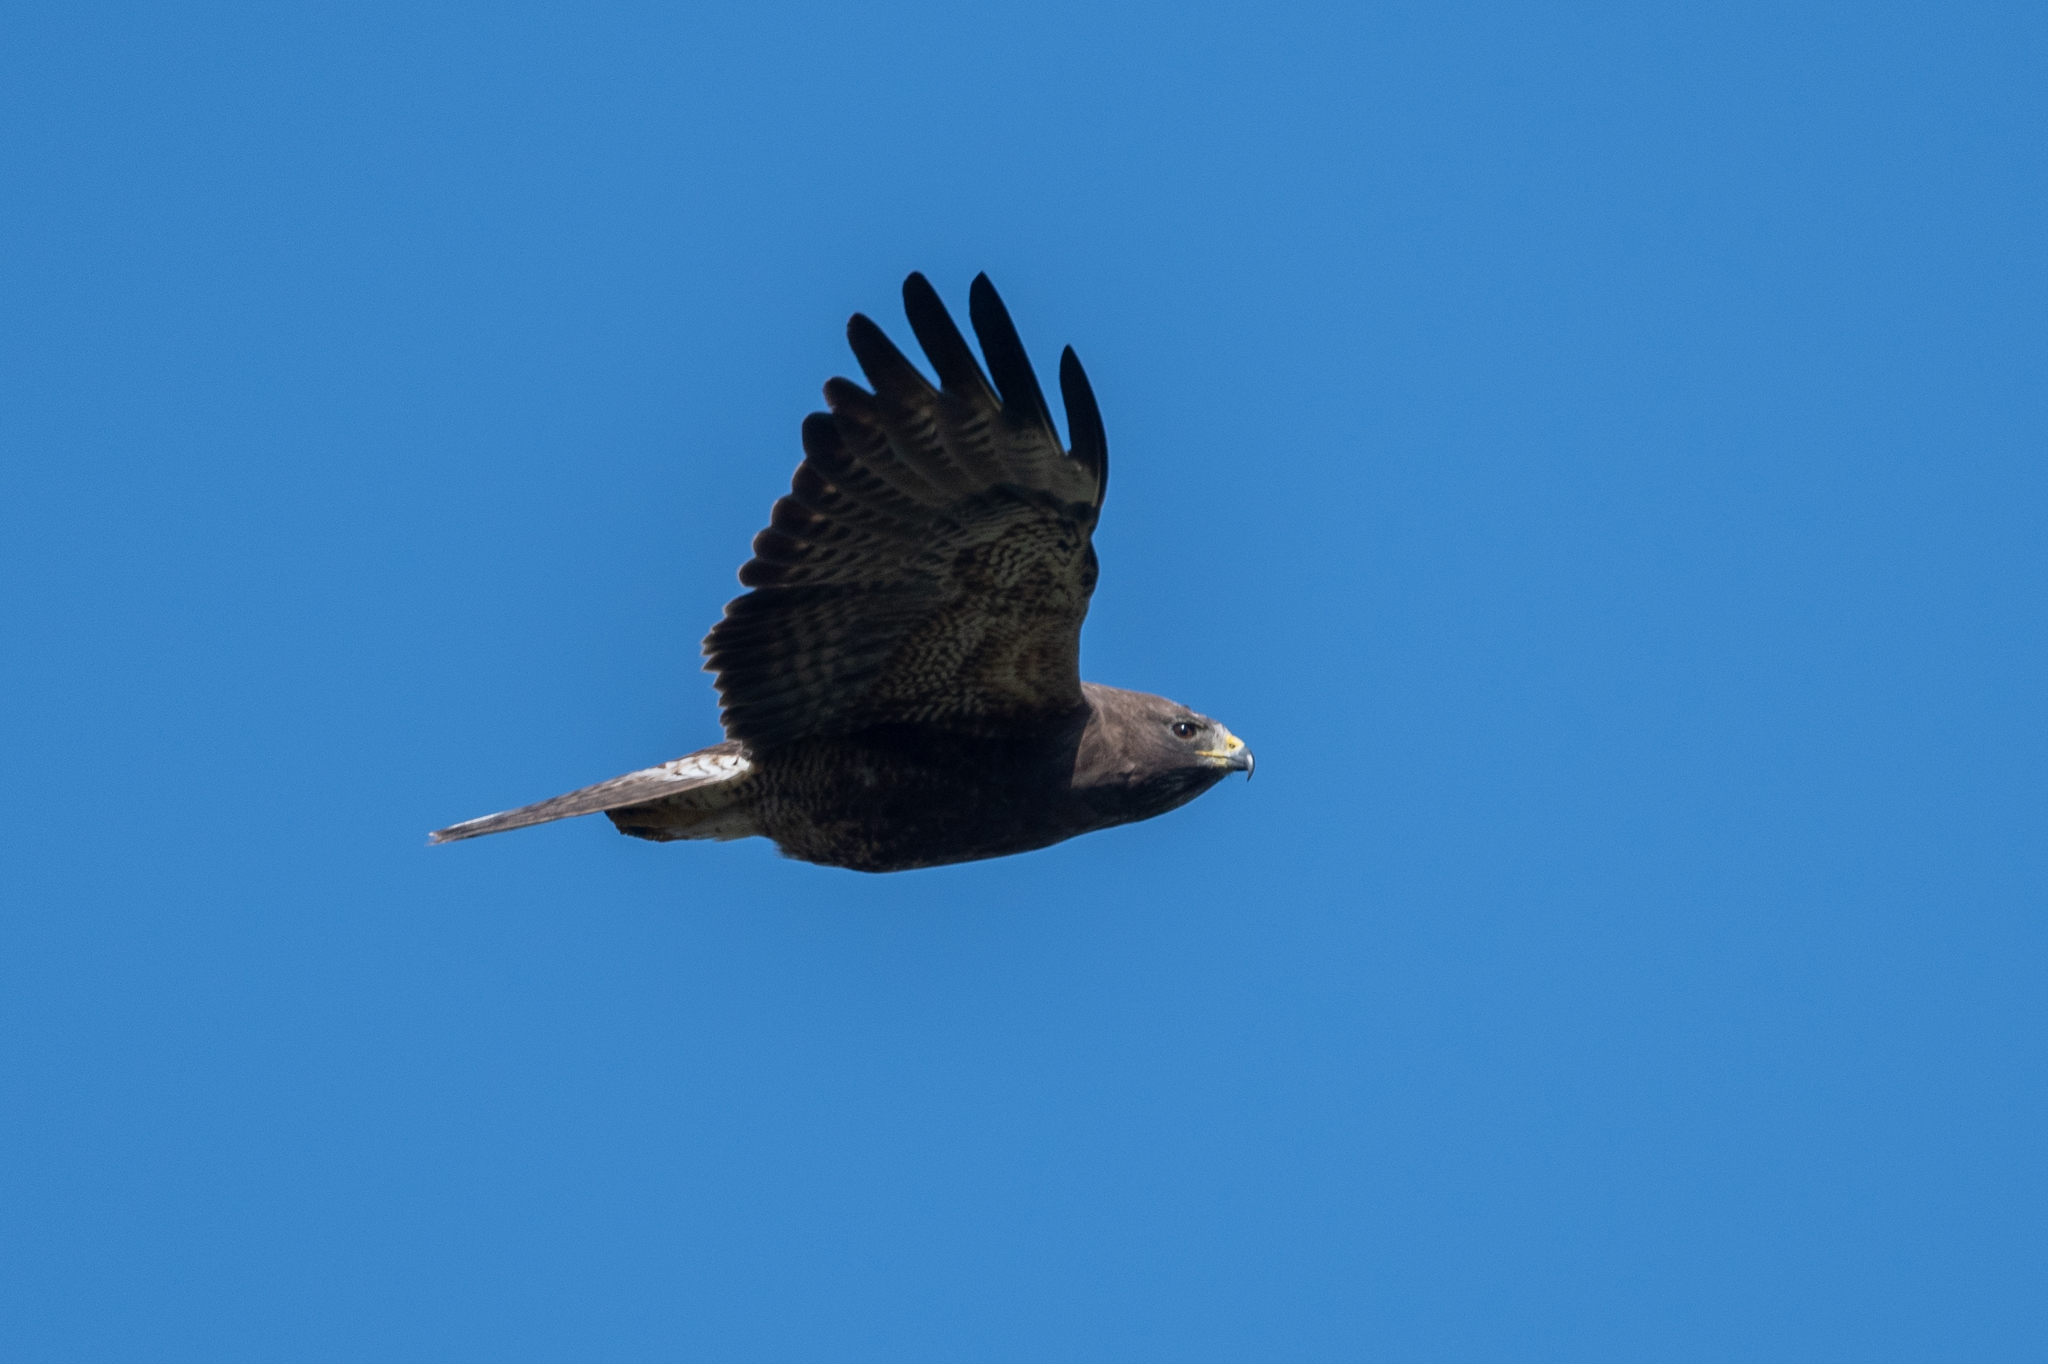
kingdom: Animalia
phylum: Chordata
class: Aves
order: Accipitriformes
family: Accipitridae
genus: Buteo
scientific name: Buteo swainsoni
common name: Swainson's hawk
